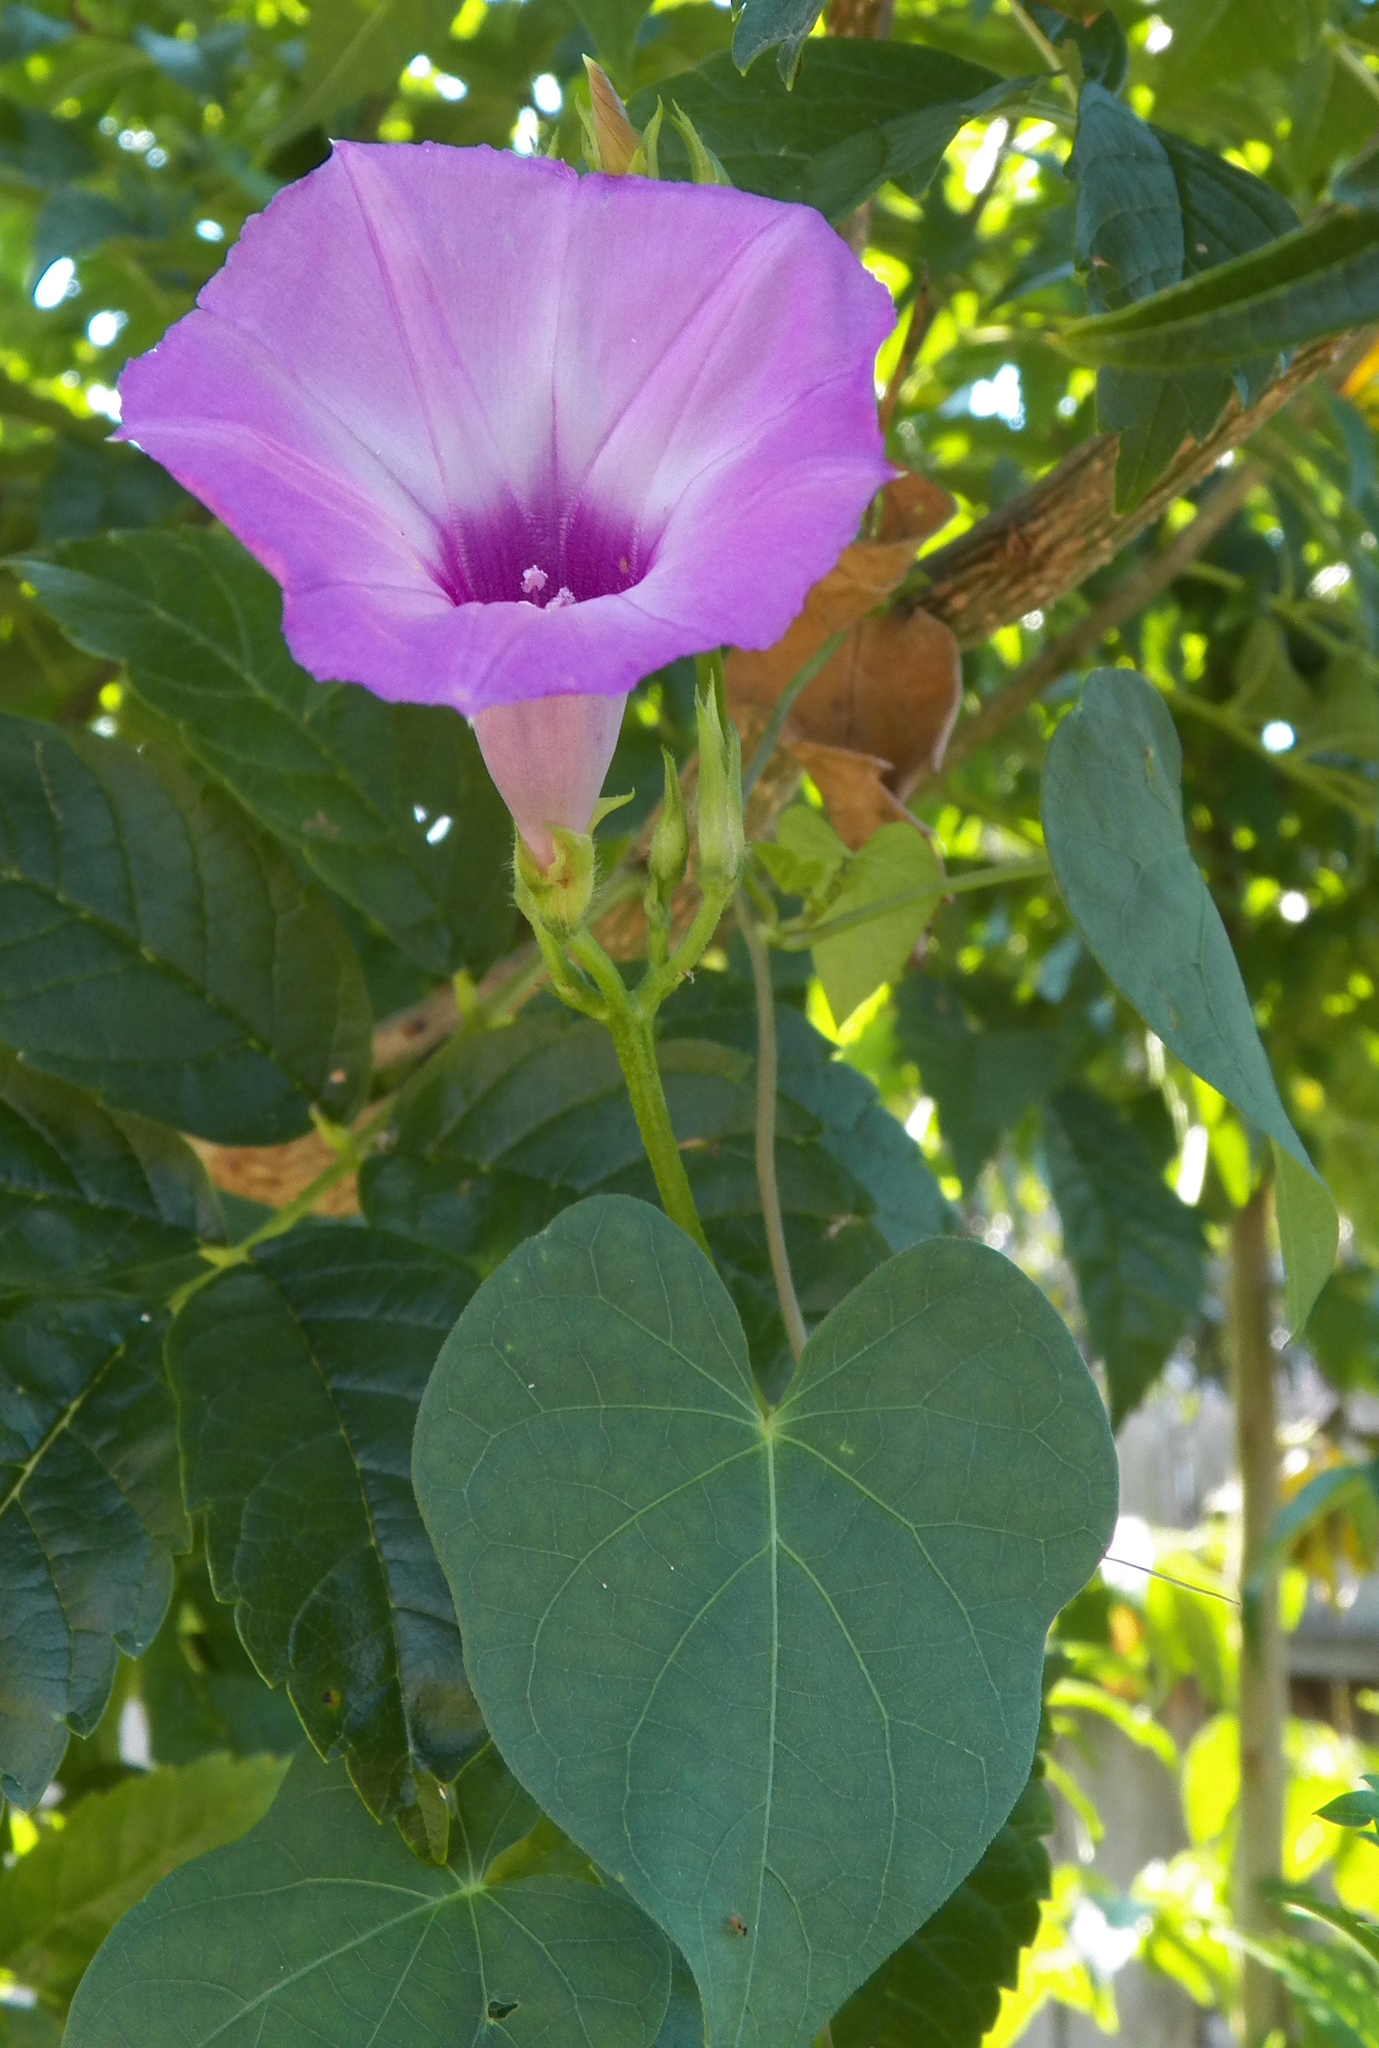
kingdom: Plantae
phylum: Tracheophyta
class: Magnoliopsida
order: Solanales
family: Convolvulaceae
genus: Ipomoea
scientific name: Ipomoea cordatotriloba
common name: Cotton morning glory
